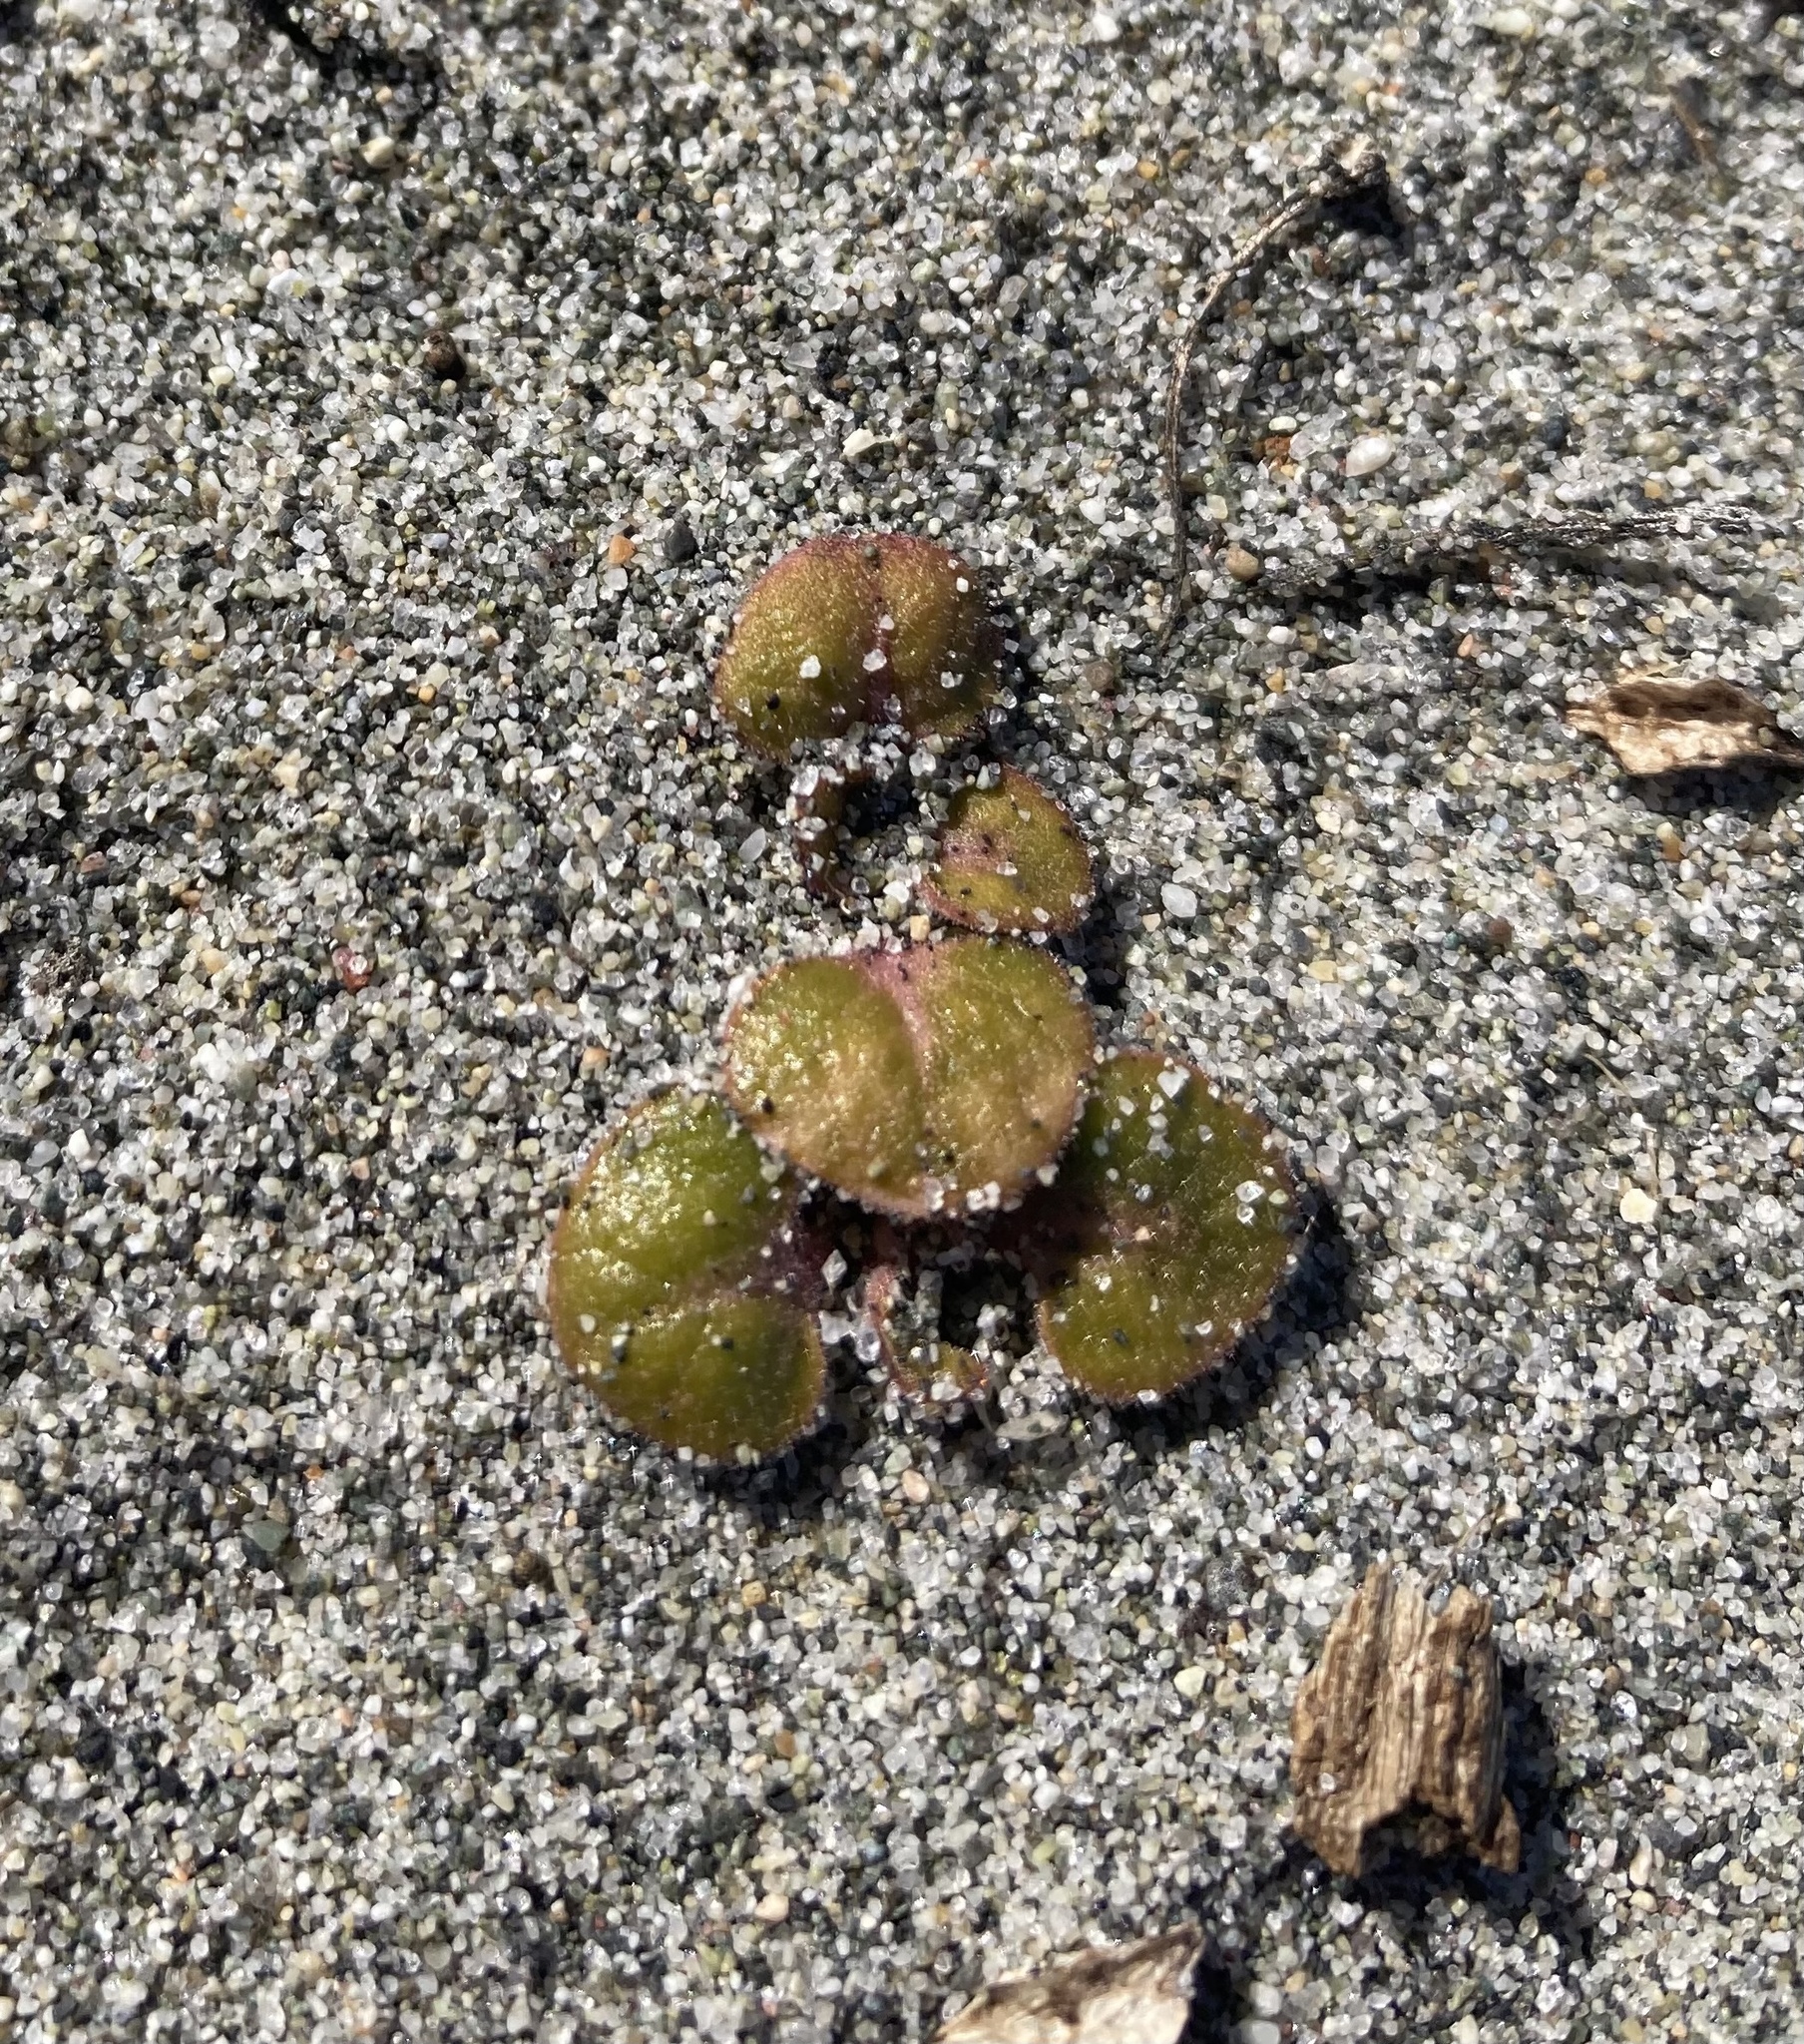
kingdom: Plantae
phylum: Tracheophyta
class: Magnoliopsida
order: Caryophyllales
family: Nyctaginaceae
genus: Abronia
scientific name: Abronia latifolia
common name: Yellow sand-verbena
